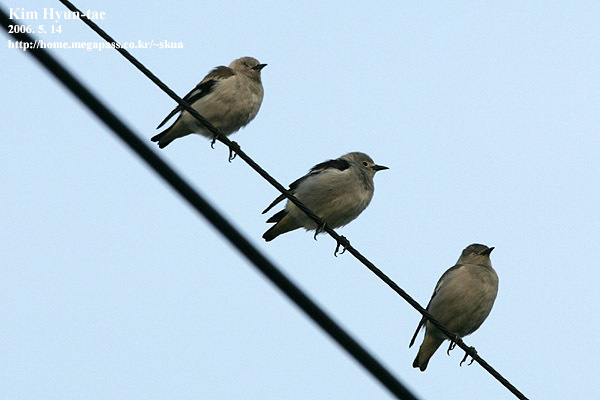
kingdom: Animalia
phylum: Chordata
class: Aves
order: Passeriformes
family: Sturnidae
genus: Agropsar
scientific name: Agropsar sturninus
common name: Daurian starling
